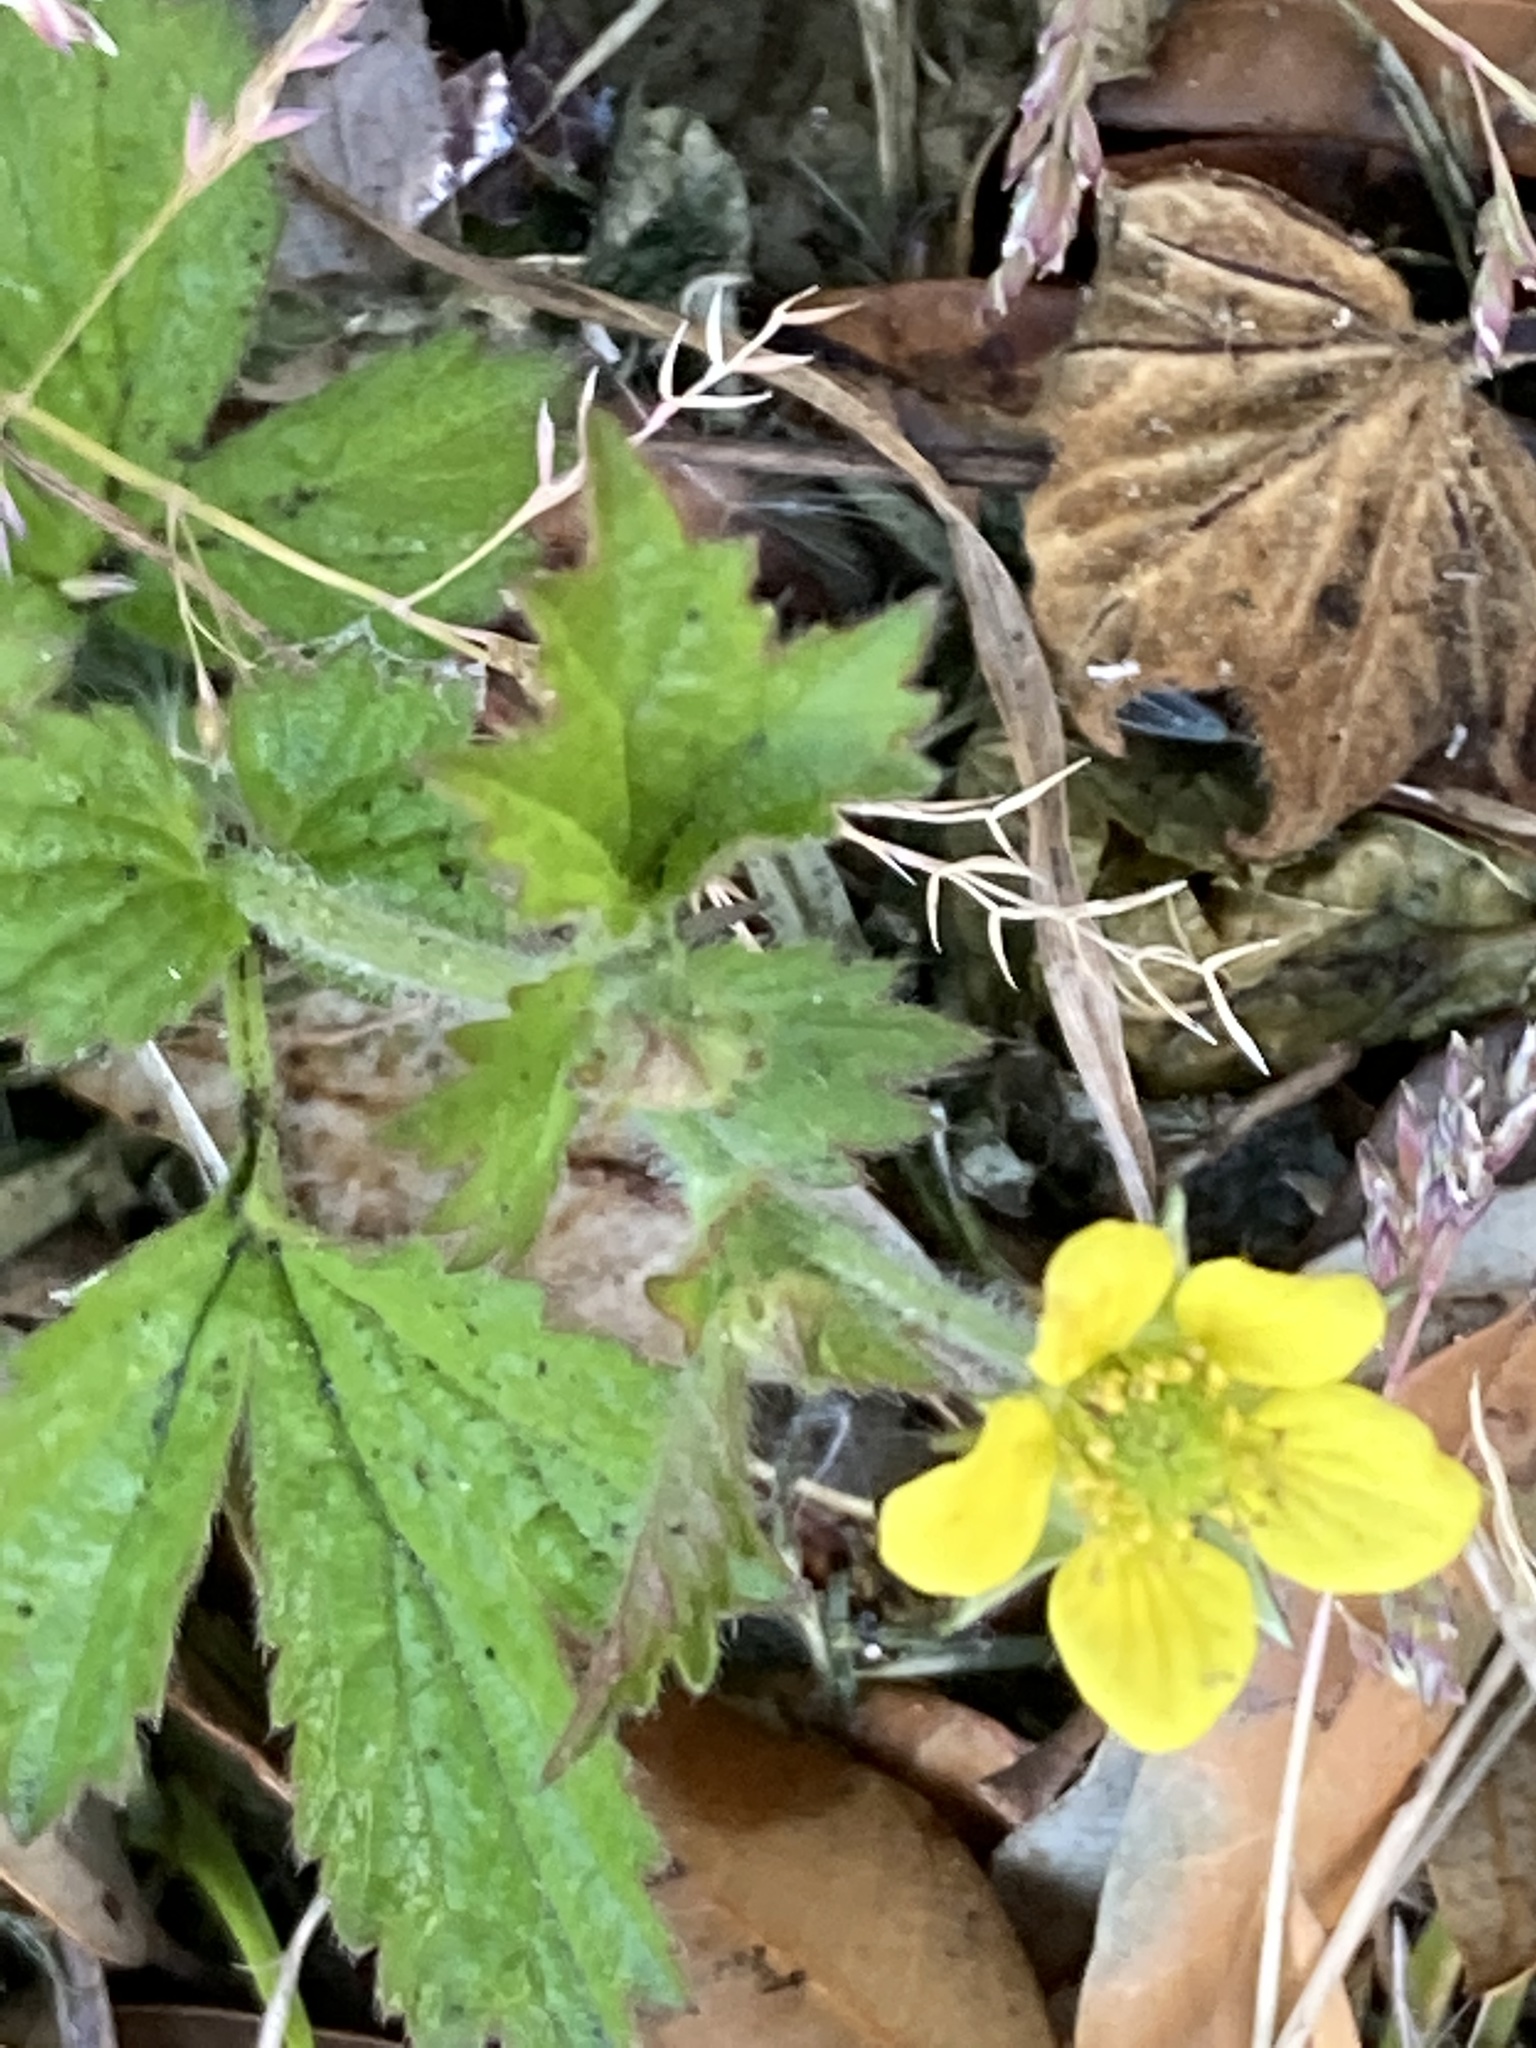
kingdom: Plantae
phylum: Tracheophyta
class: Magnoliopsida
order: Rosales
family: Rosaceae
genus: Geum
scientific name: Geum urbanum
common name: Wood avens
